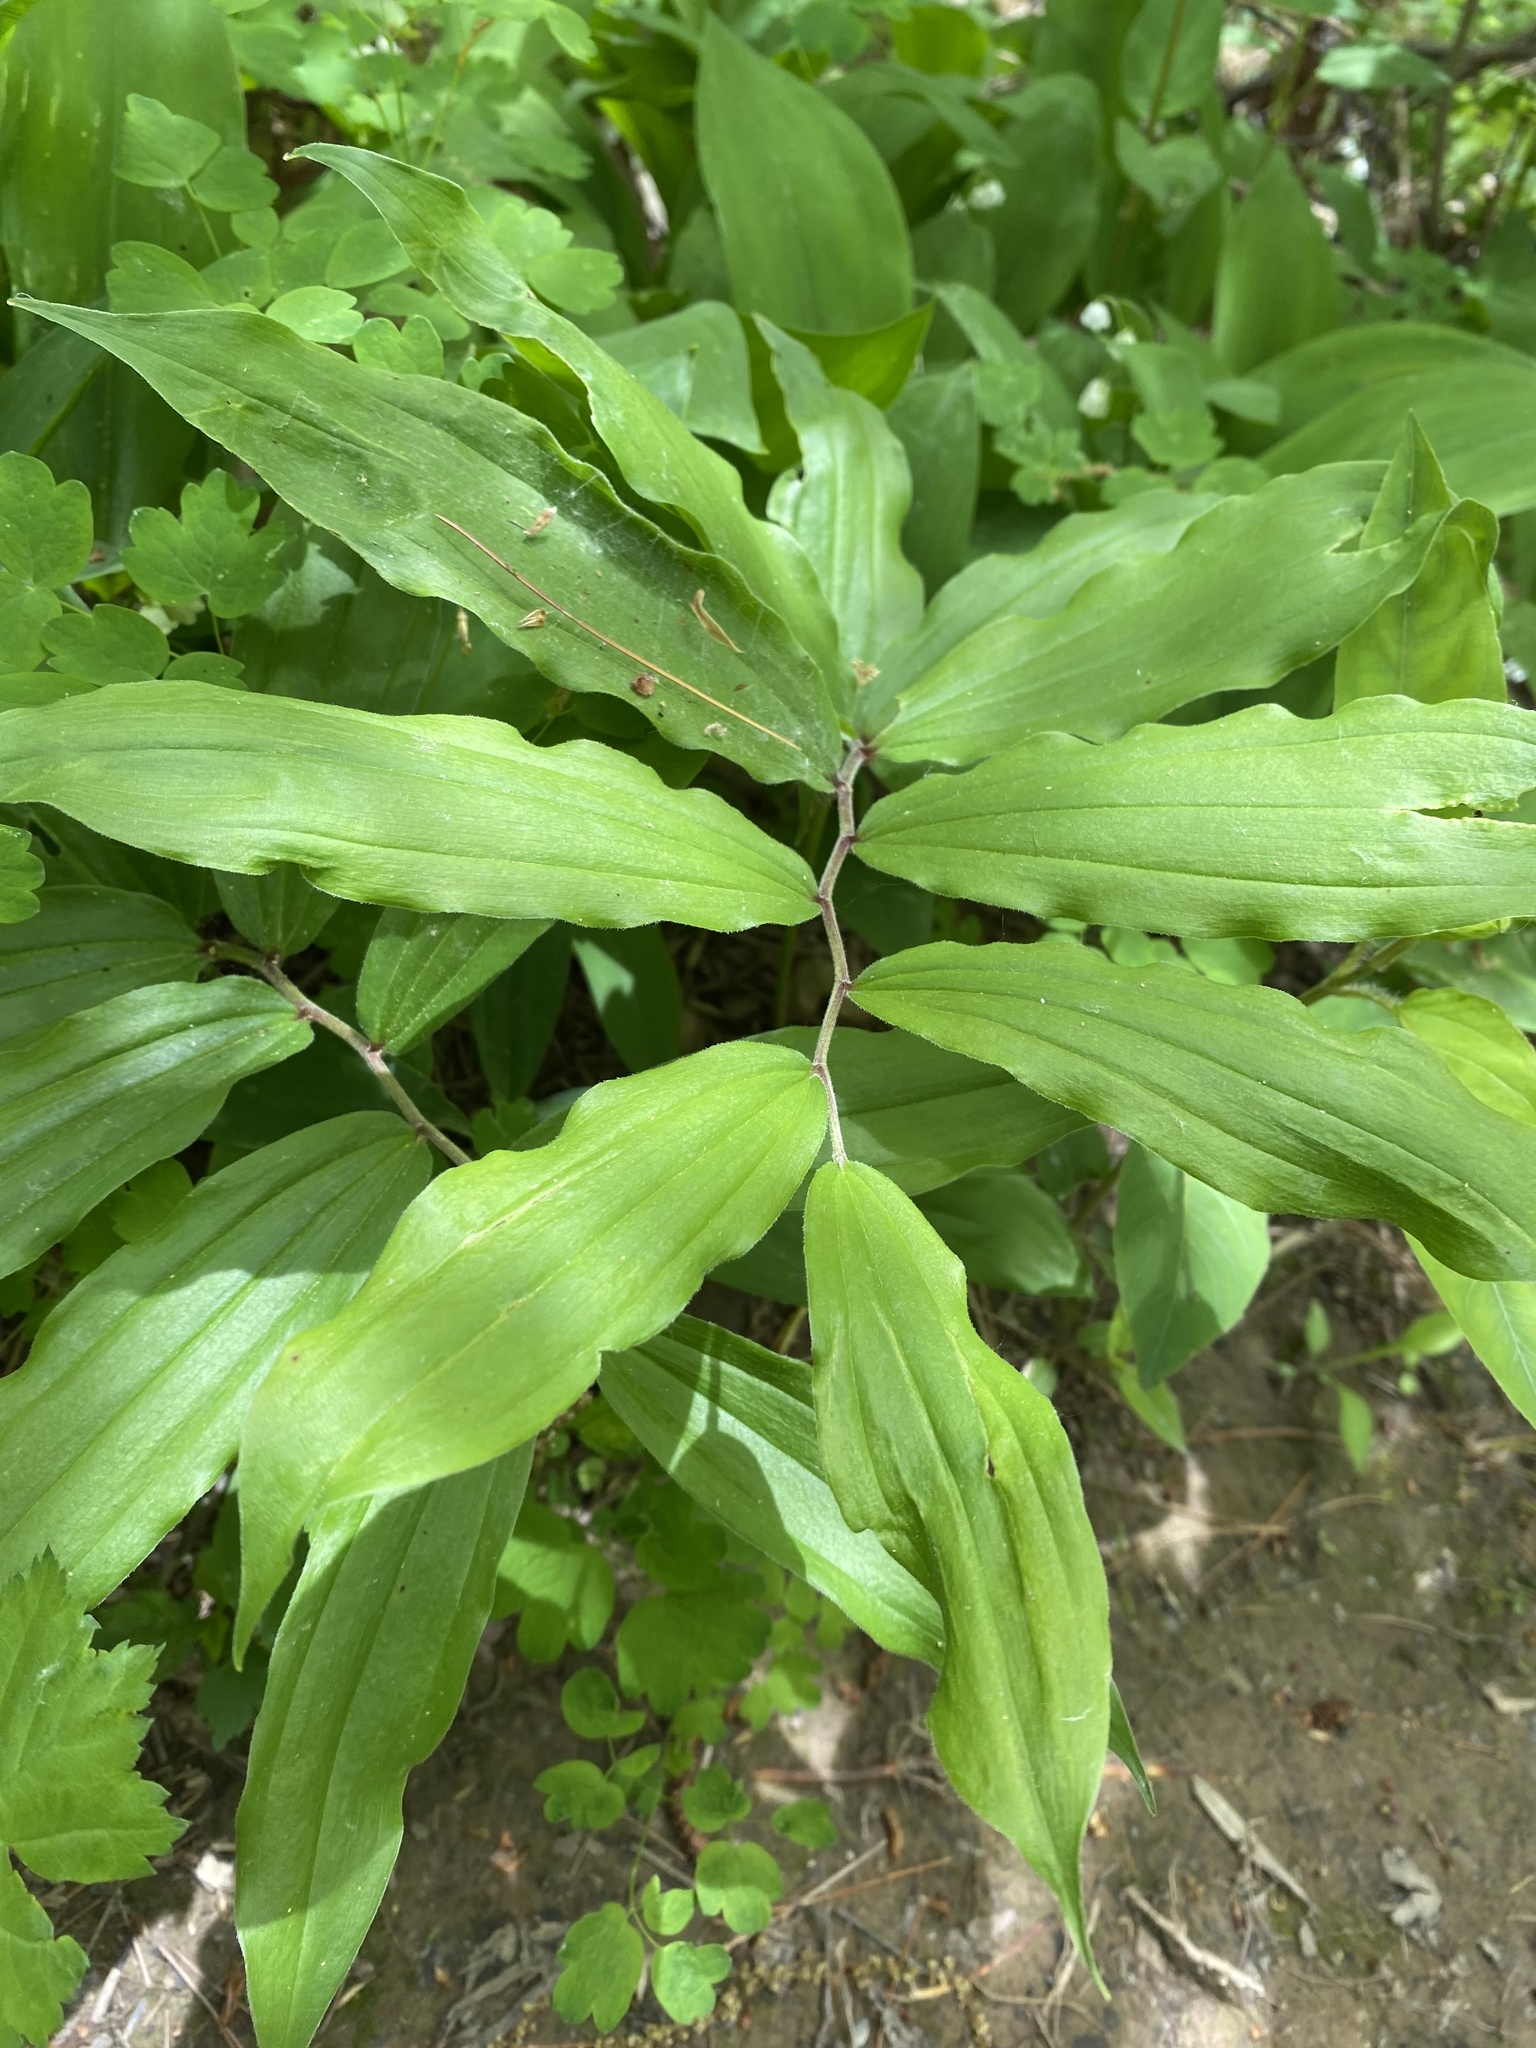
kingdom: Plantae
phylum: Tracheophyta
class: Liliopsida
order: Asparagales
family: Asparagaceae
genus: Maianthemum
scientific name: Maianthemum racemosum
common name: False spikenard
